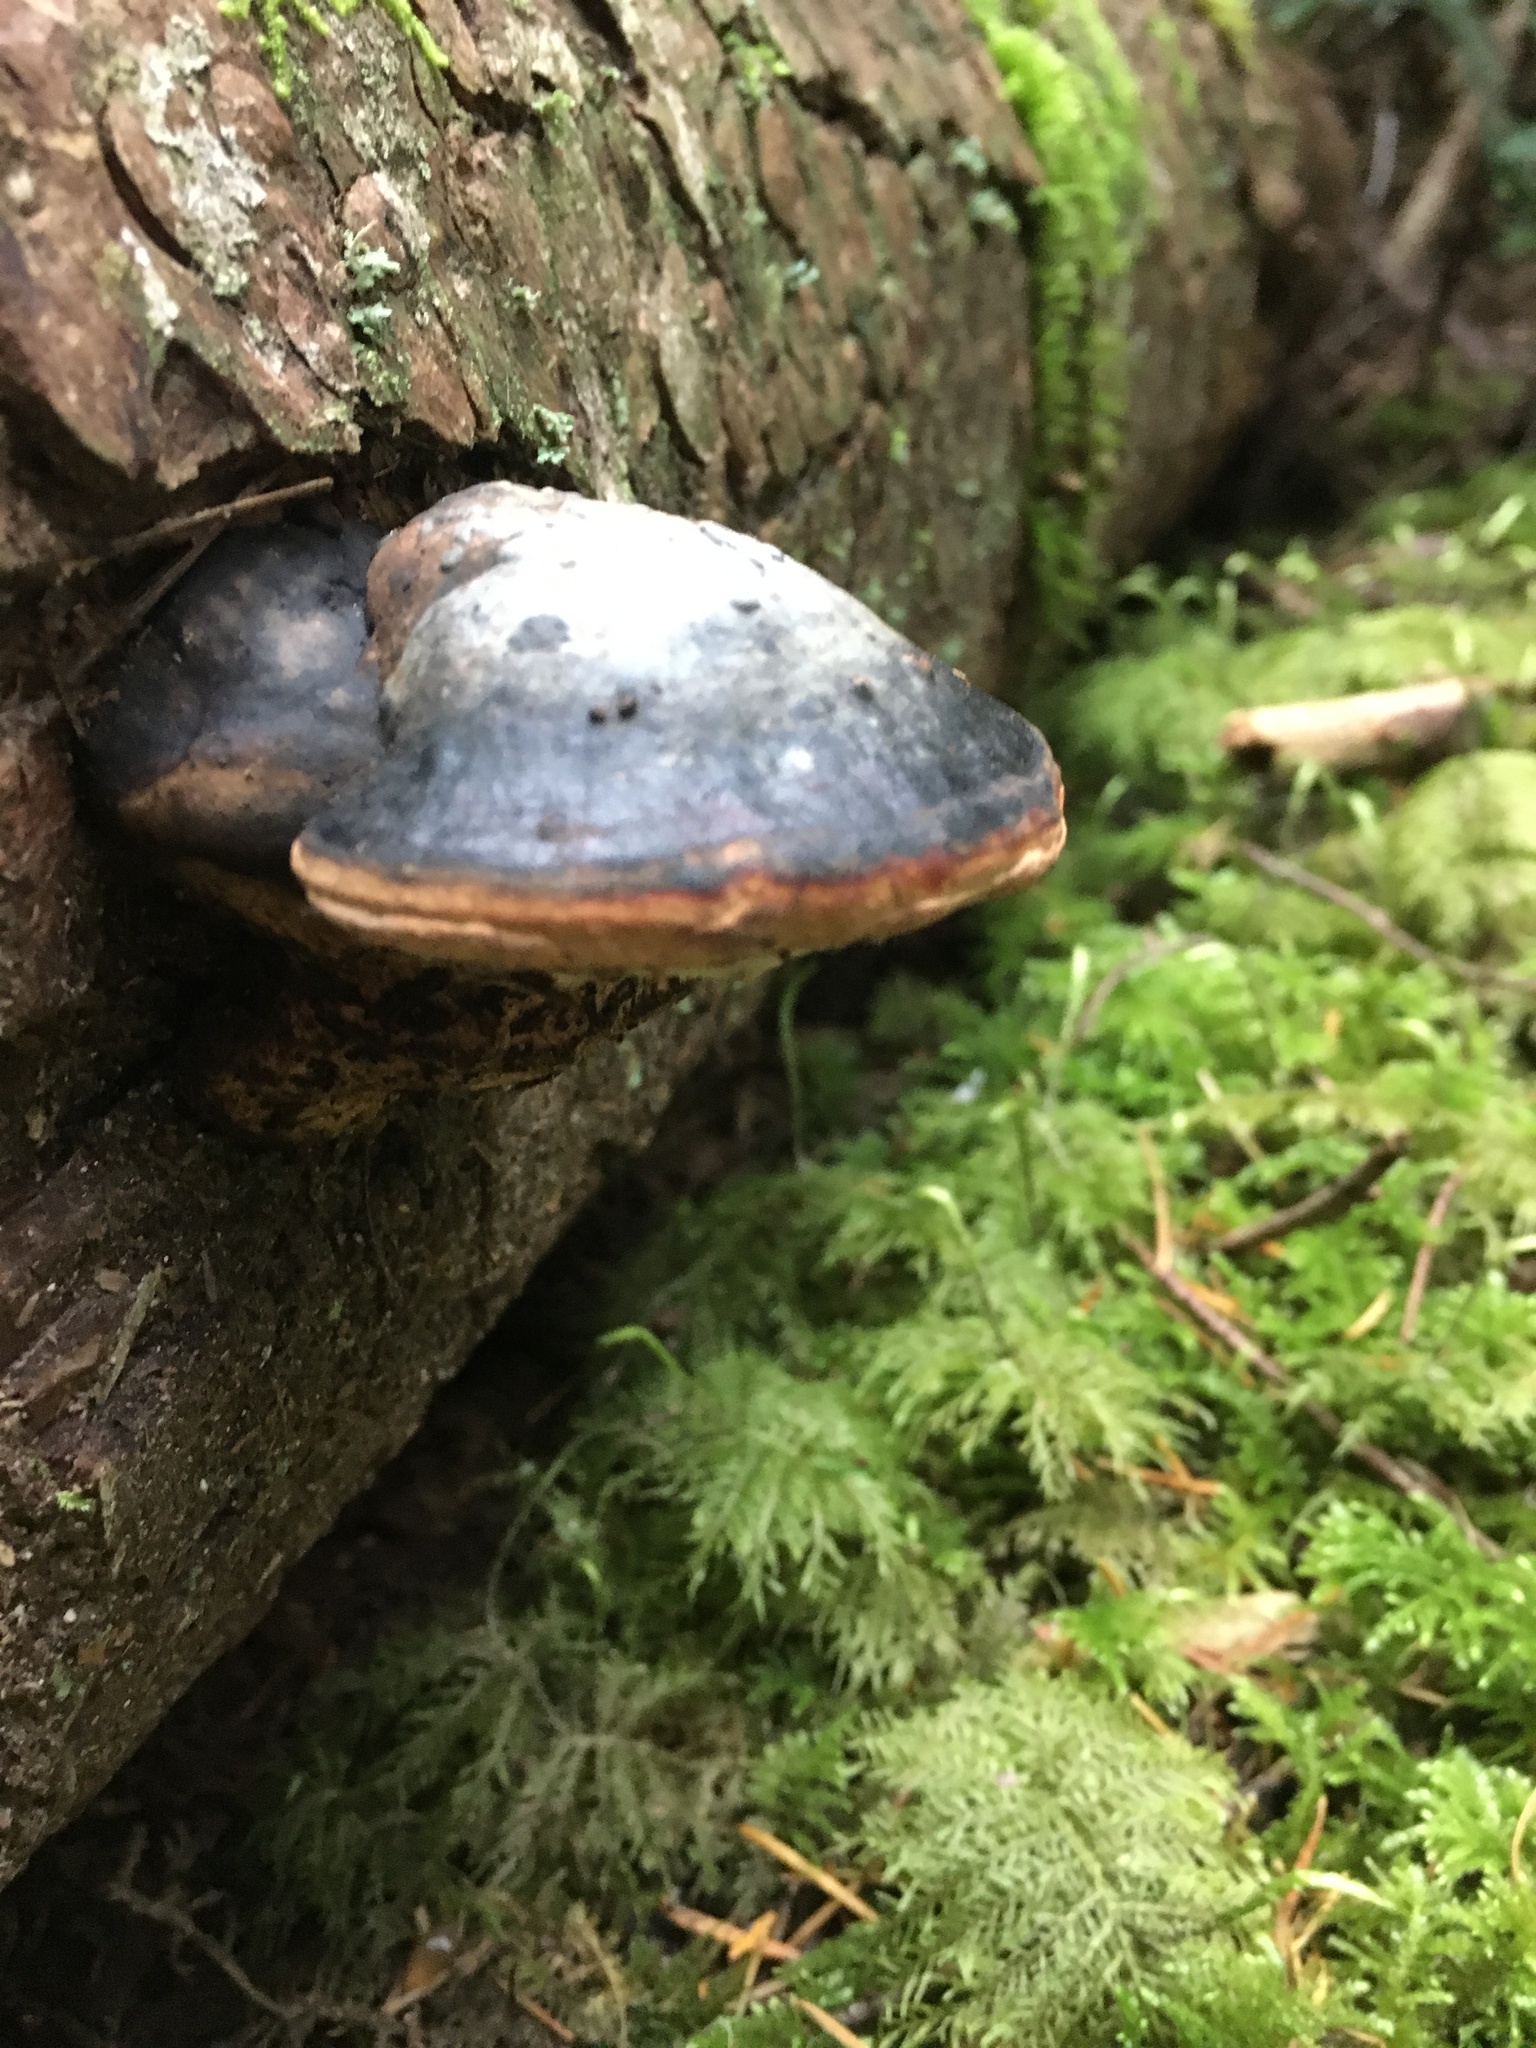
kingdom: Fungi
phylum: Basidiomycota
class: Agaricomycetes
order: Polyporales
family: Fomitopsidaceae
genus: Fomitopsis
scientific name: Fomitopsis mounceae
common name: Northern red belt
